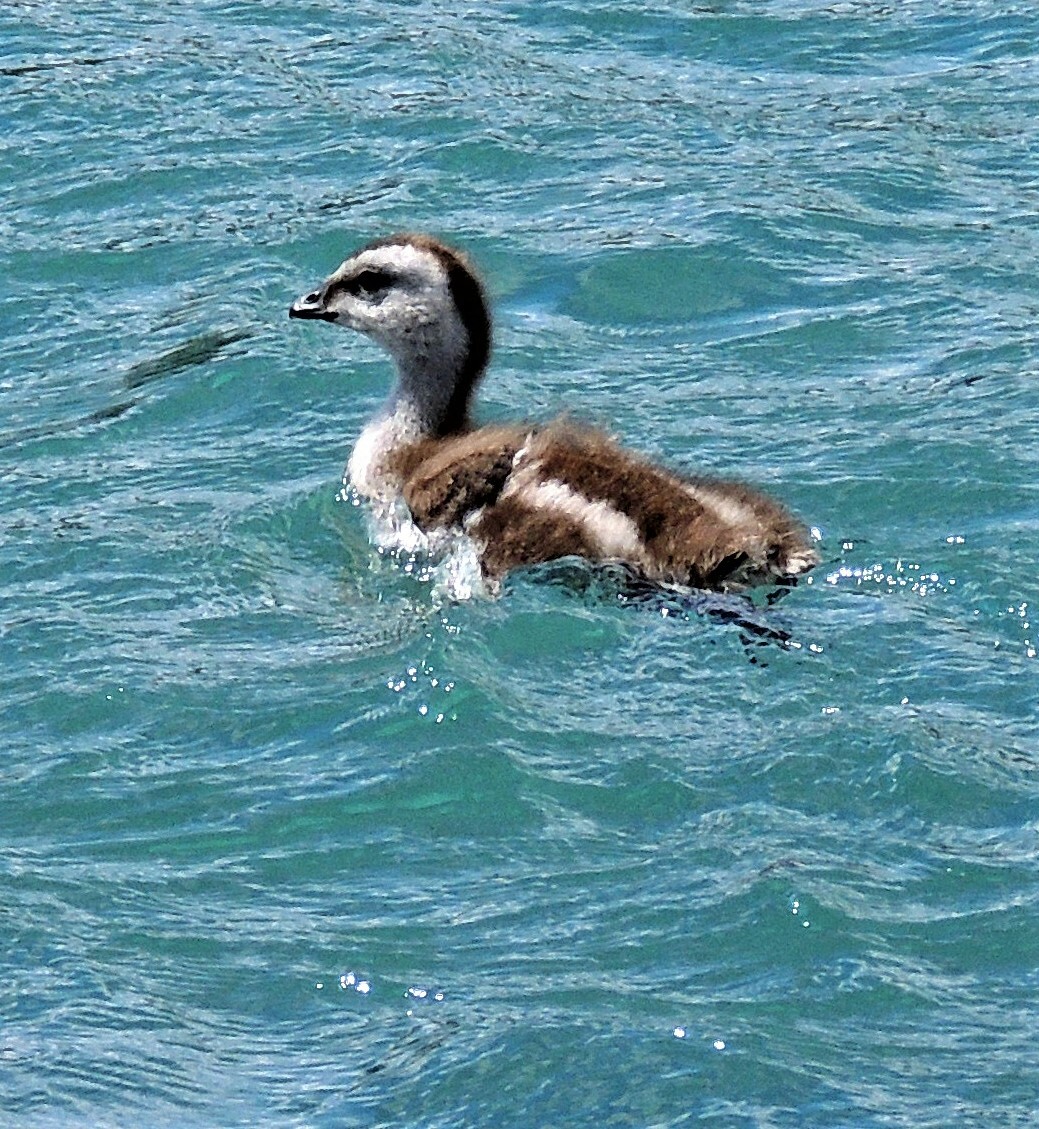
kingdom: Animalia
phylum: Chordata
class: Aves
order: Anseriformes
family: Anatidae
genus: Chloephaga
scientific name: Chloephaga poliocephala
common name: Ashy-headed goose
